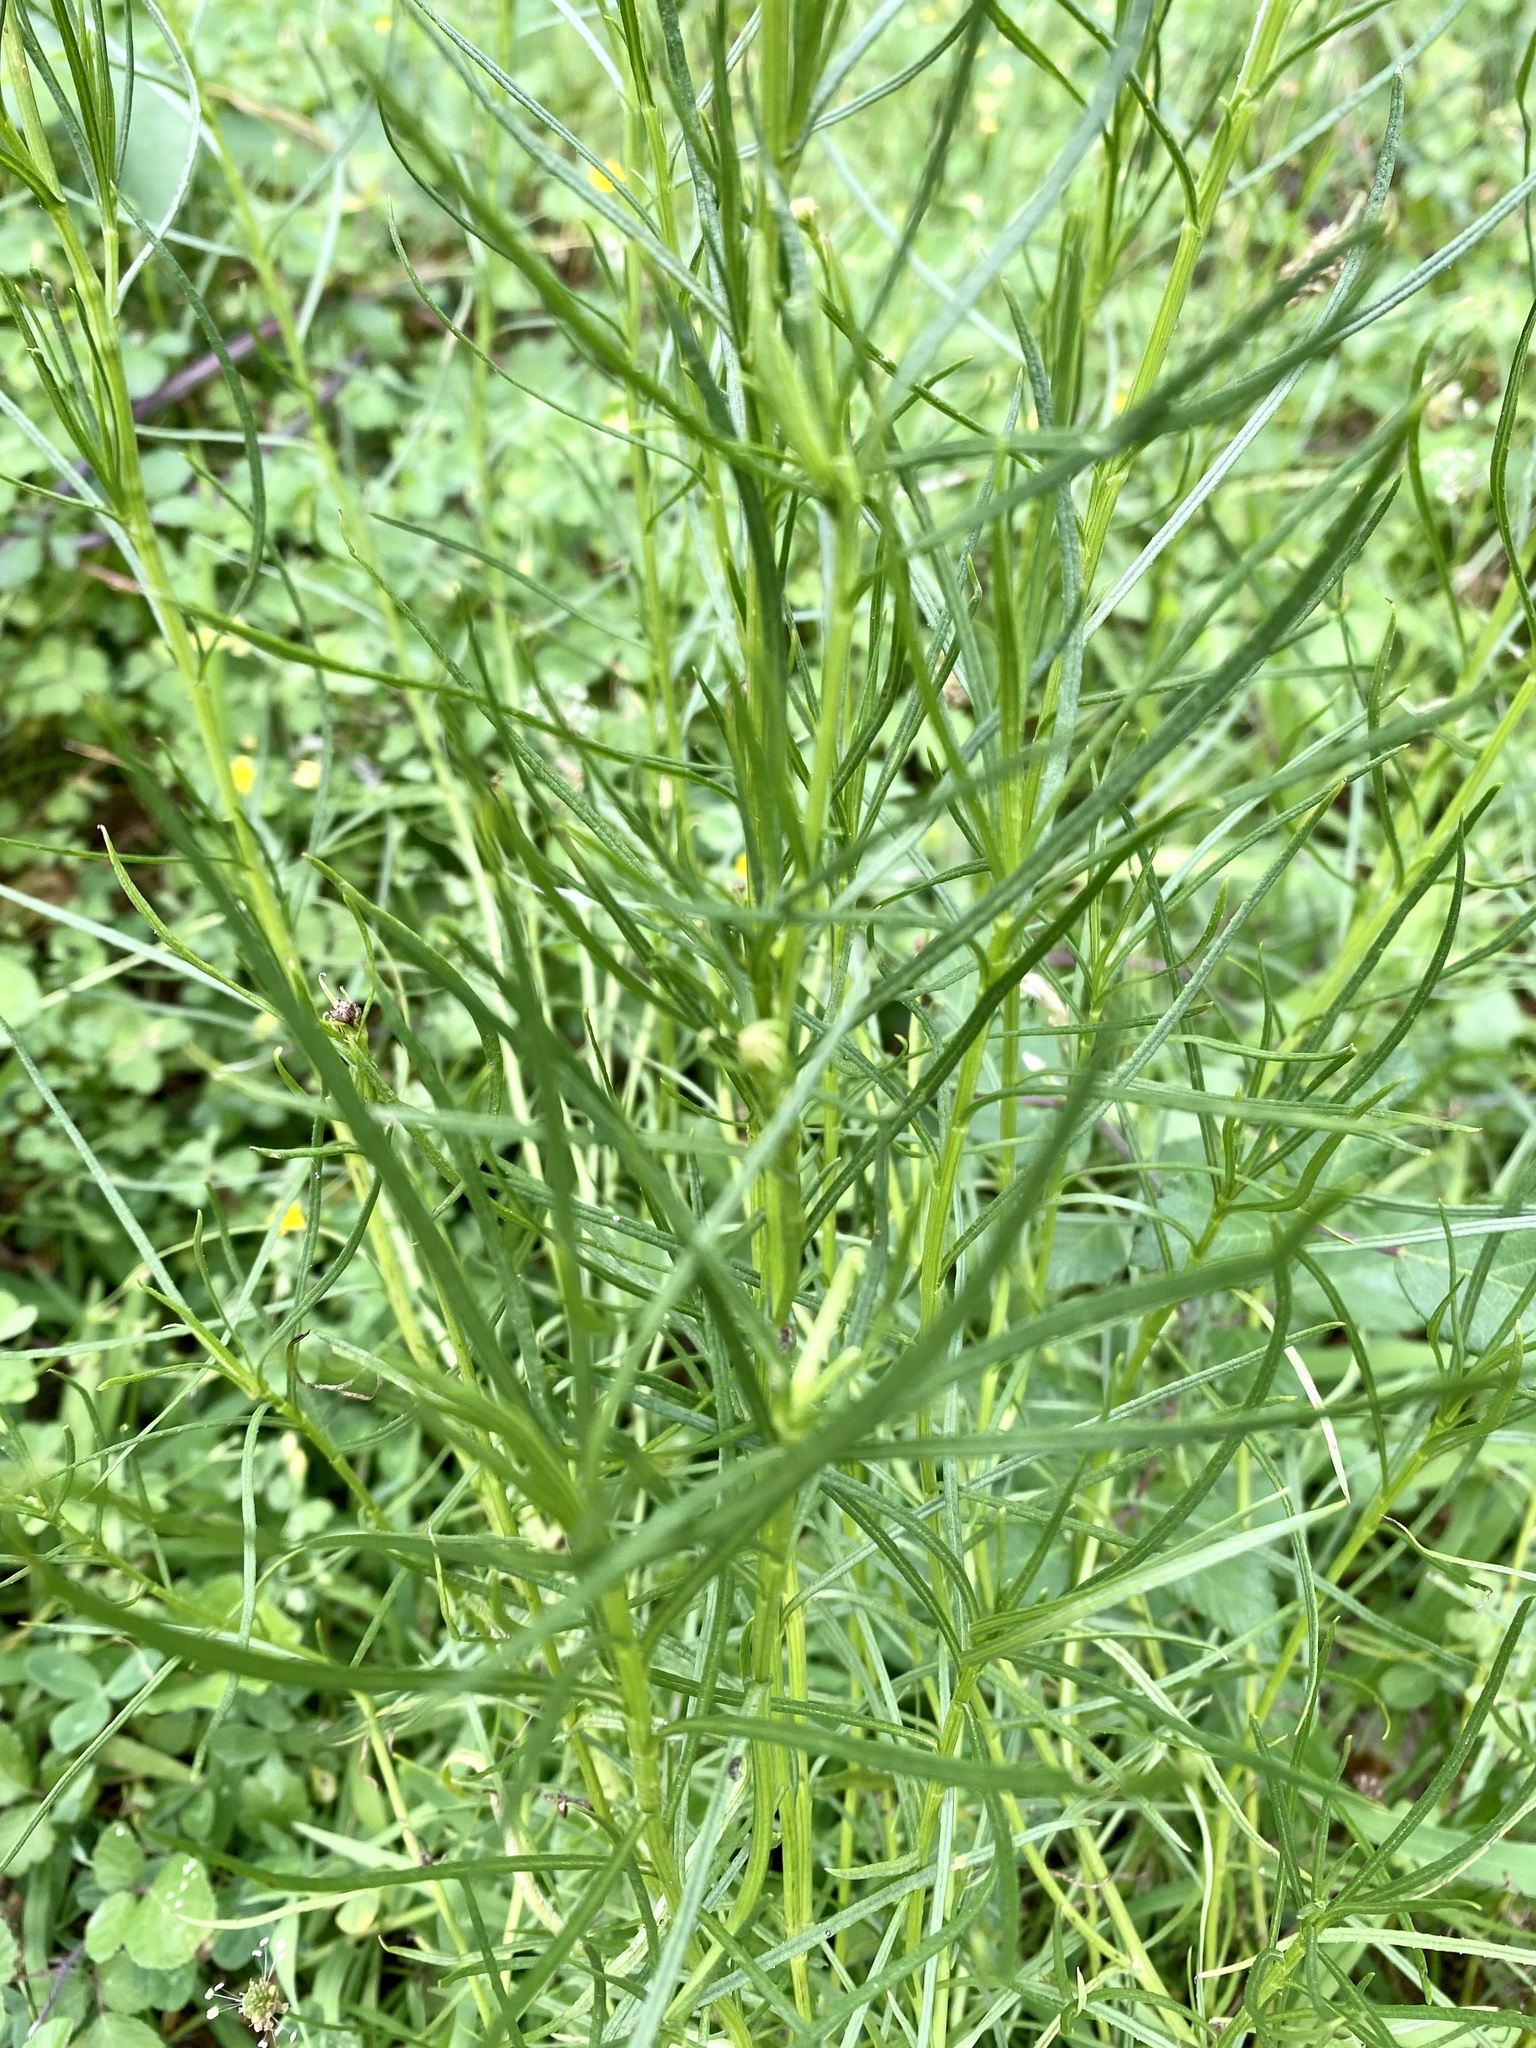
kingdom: Plantae
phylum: Tracheophyta
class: Magnoliopsida
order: Asterales
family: Asteraceae
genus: Senecio
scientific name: Senecio inaequidens
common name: Narrow-leaved ragwort
